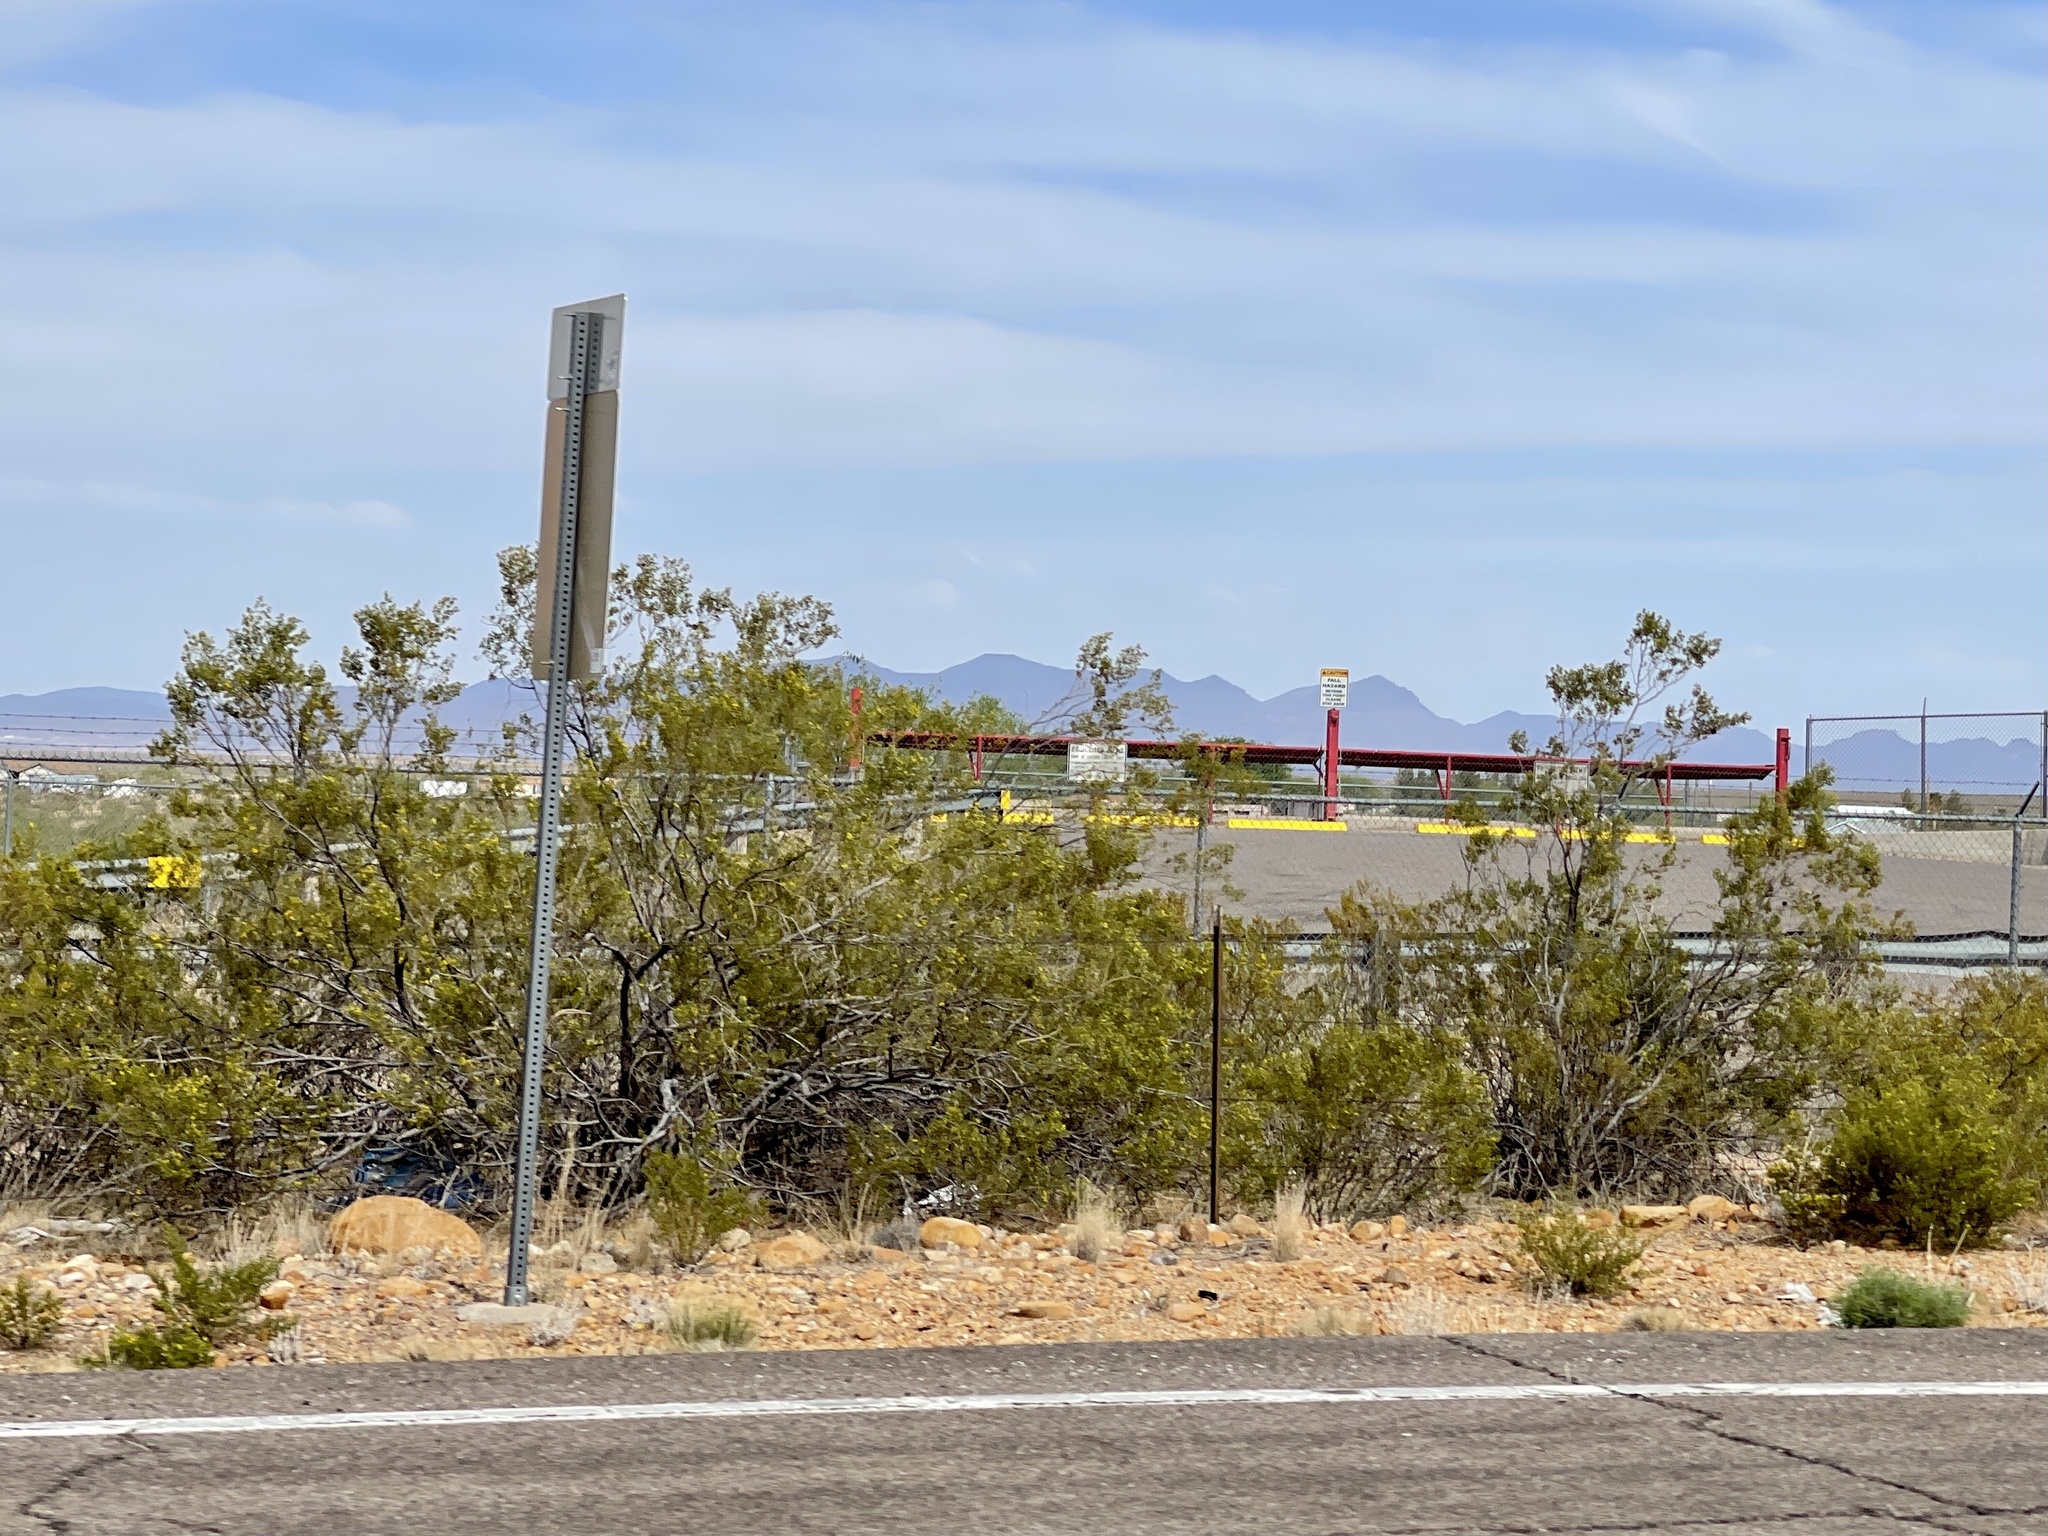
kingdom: Plantae
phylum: Tracheophyta
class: Magnoliopsida
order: Zygophyllales
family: Zygophyllaceae
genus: Larrea
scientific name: Larrea tridentata
